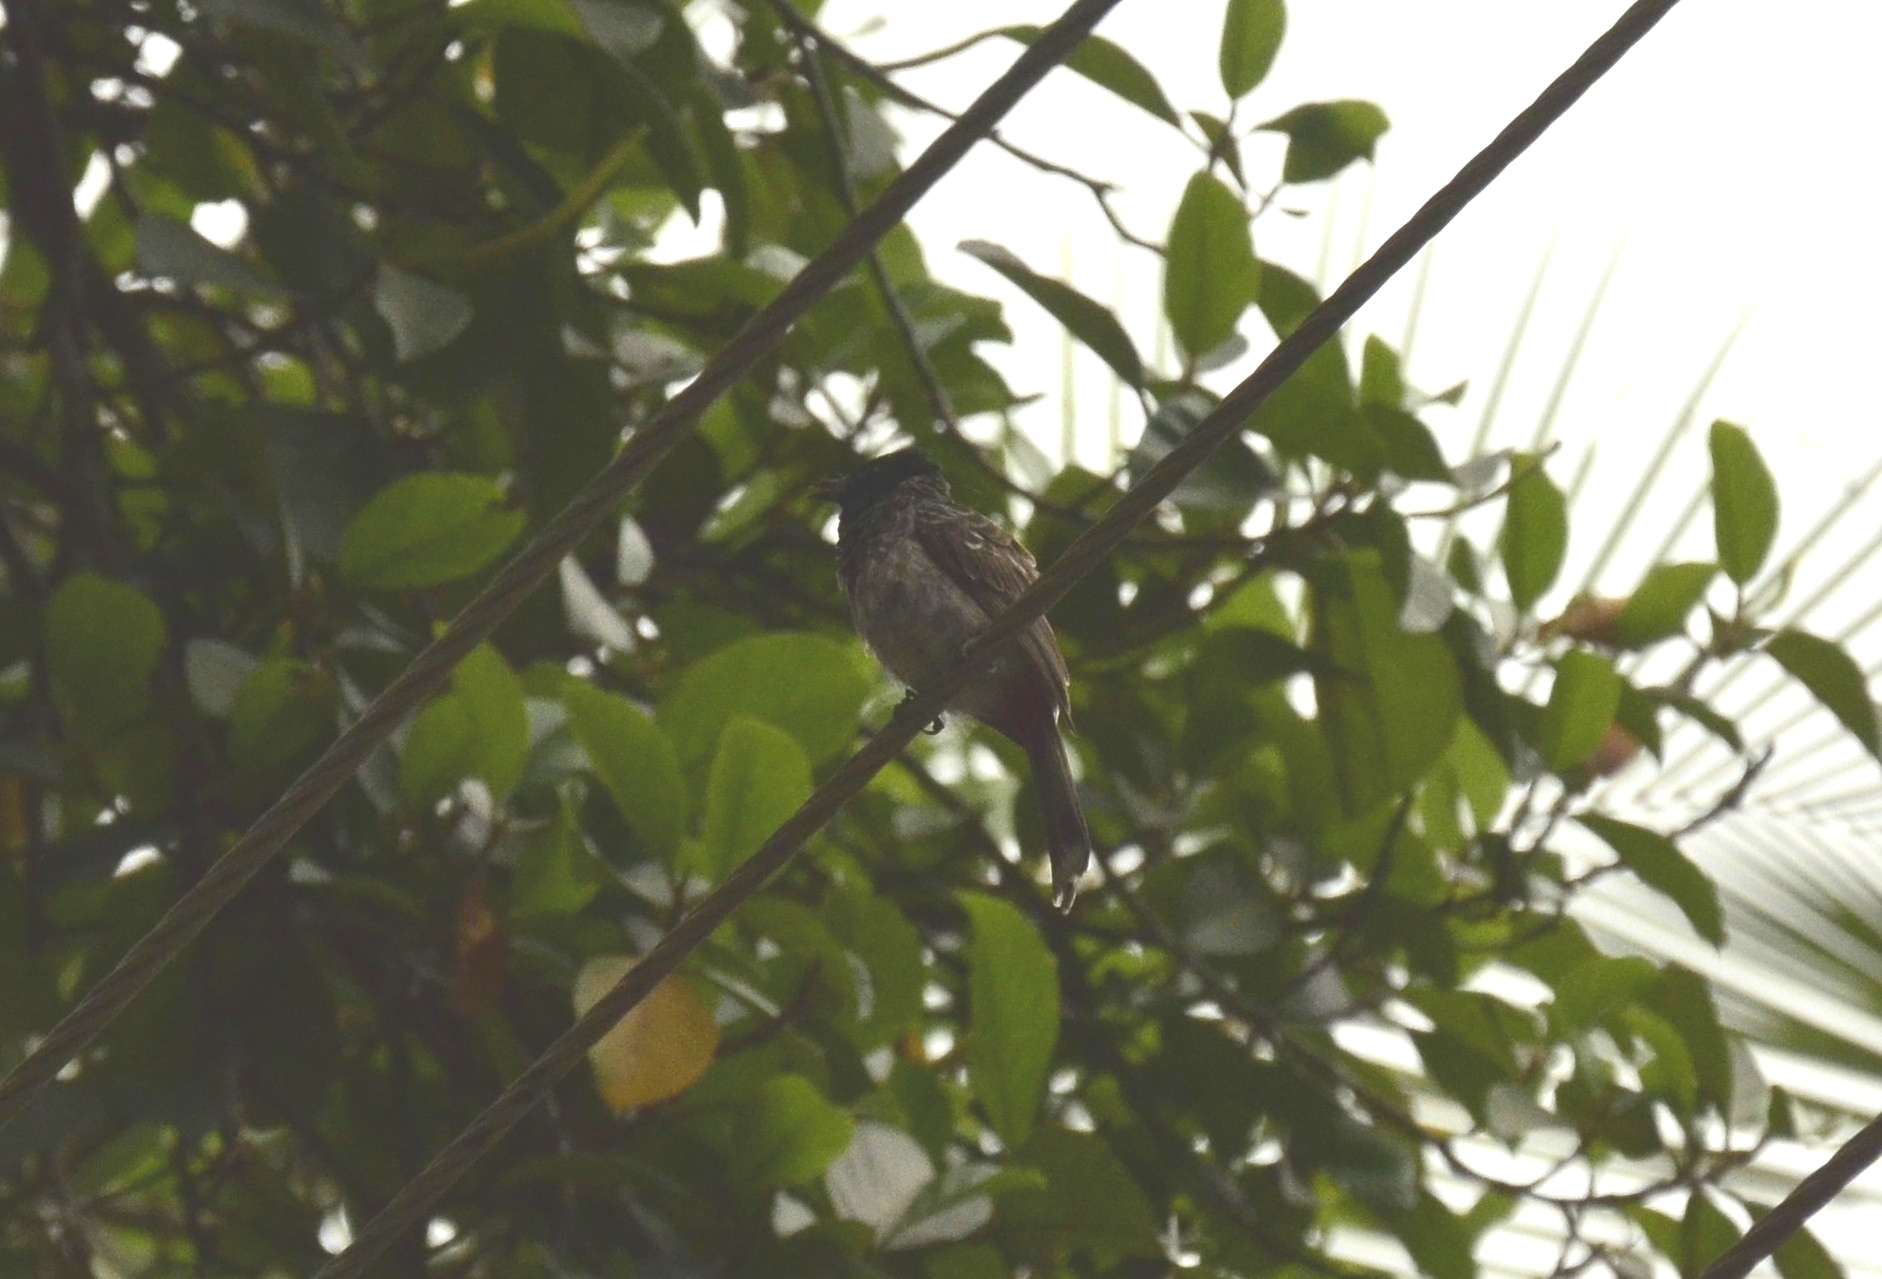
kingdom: Animalia
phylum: Chordata
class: Aves
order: Passeriformes
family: Pycnonotidae
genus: Pycnonotus
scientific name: Pycnonotus cafer
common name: Red-vented bulbul
